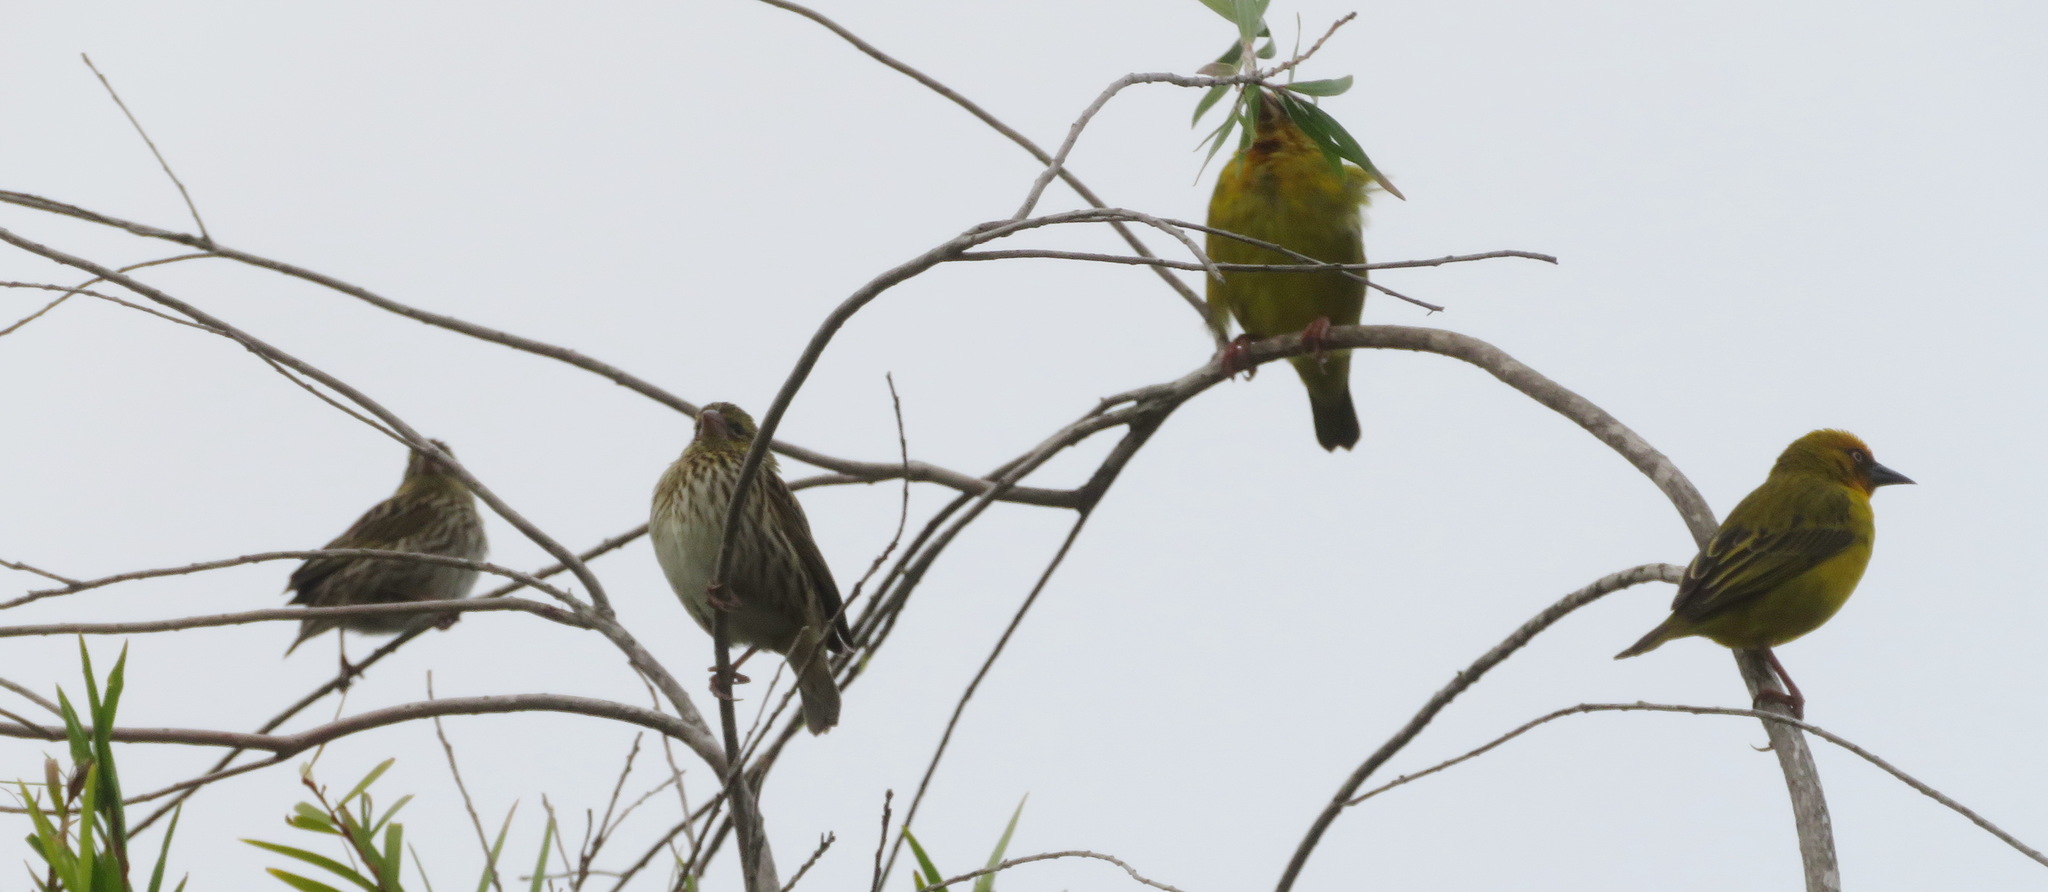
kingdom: Animalia
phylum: Chordata
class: Aves
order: Passeriformes
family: Ploceidae
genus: Ploceus
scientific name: Ploceus capensis
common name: Cape weaver
